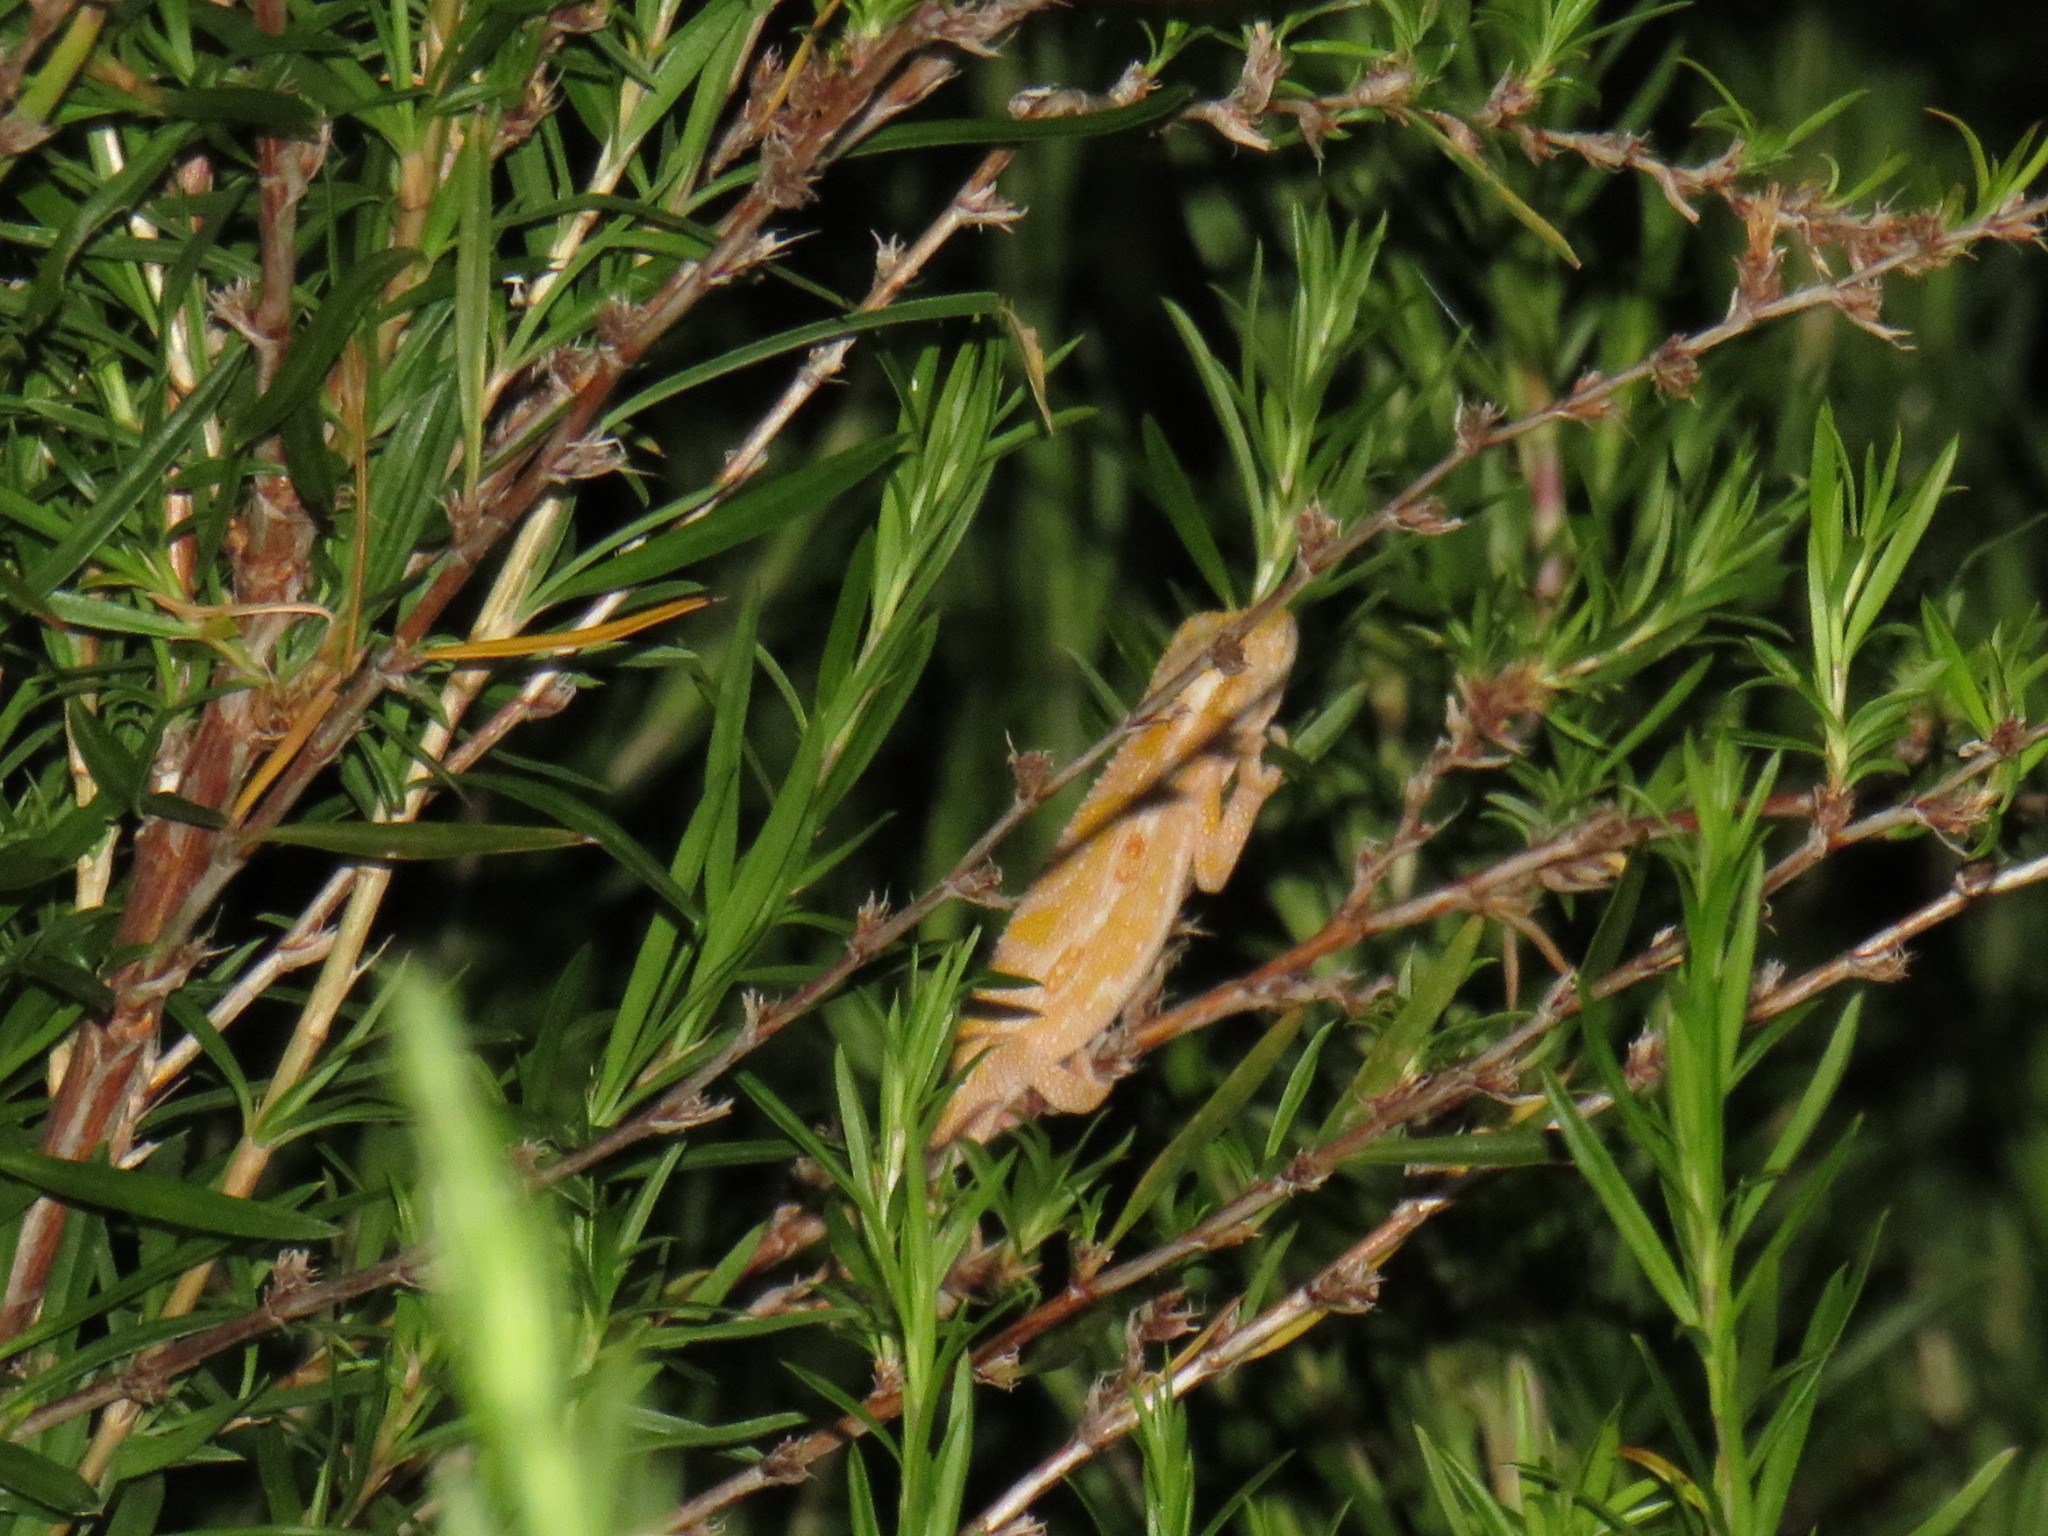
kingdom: Animalia
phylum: Chordata
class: Squamata
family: Chamaeleonidae
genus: Bradypodion
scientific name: Bradypodion pumilum
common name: Cape dwarf chameleon
